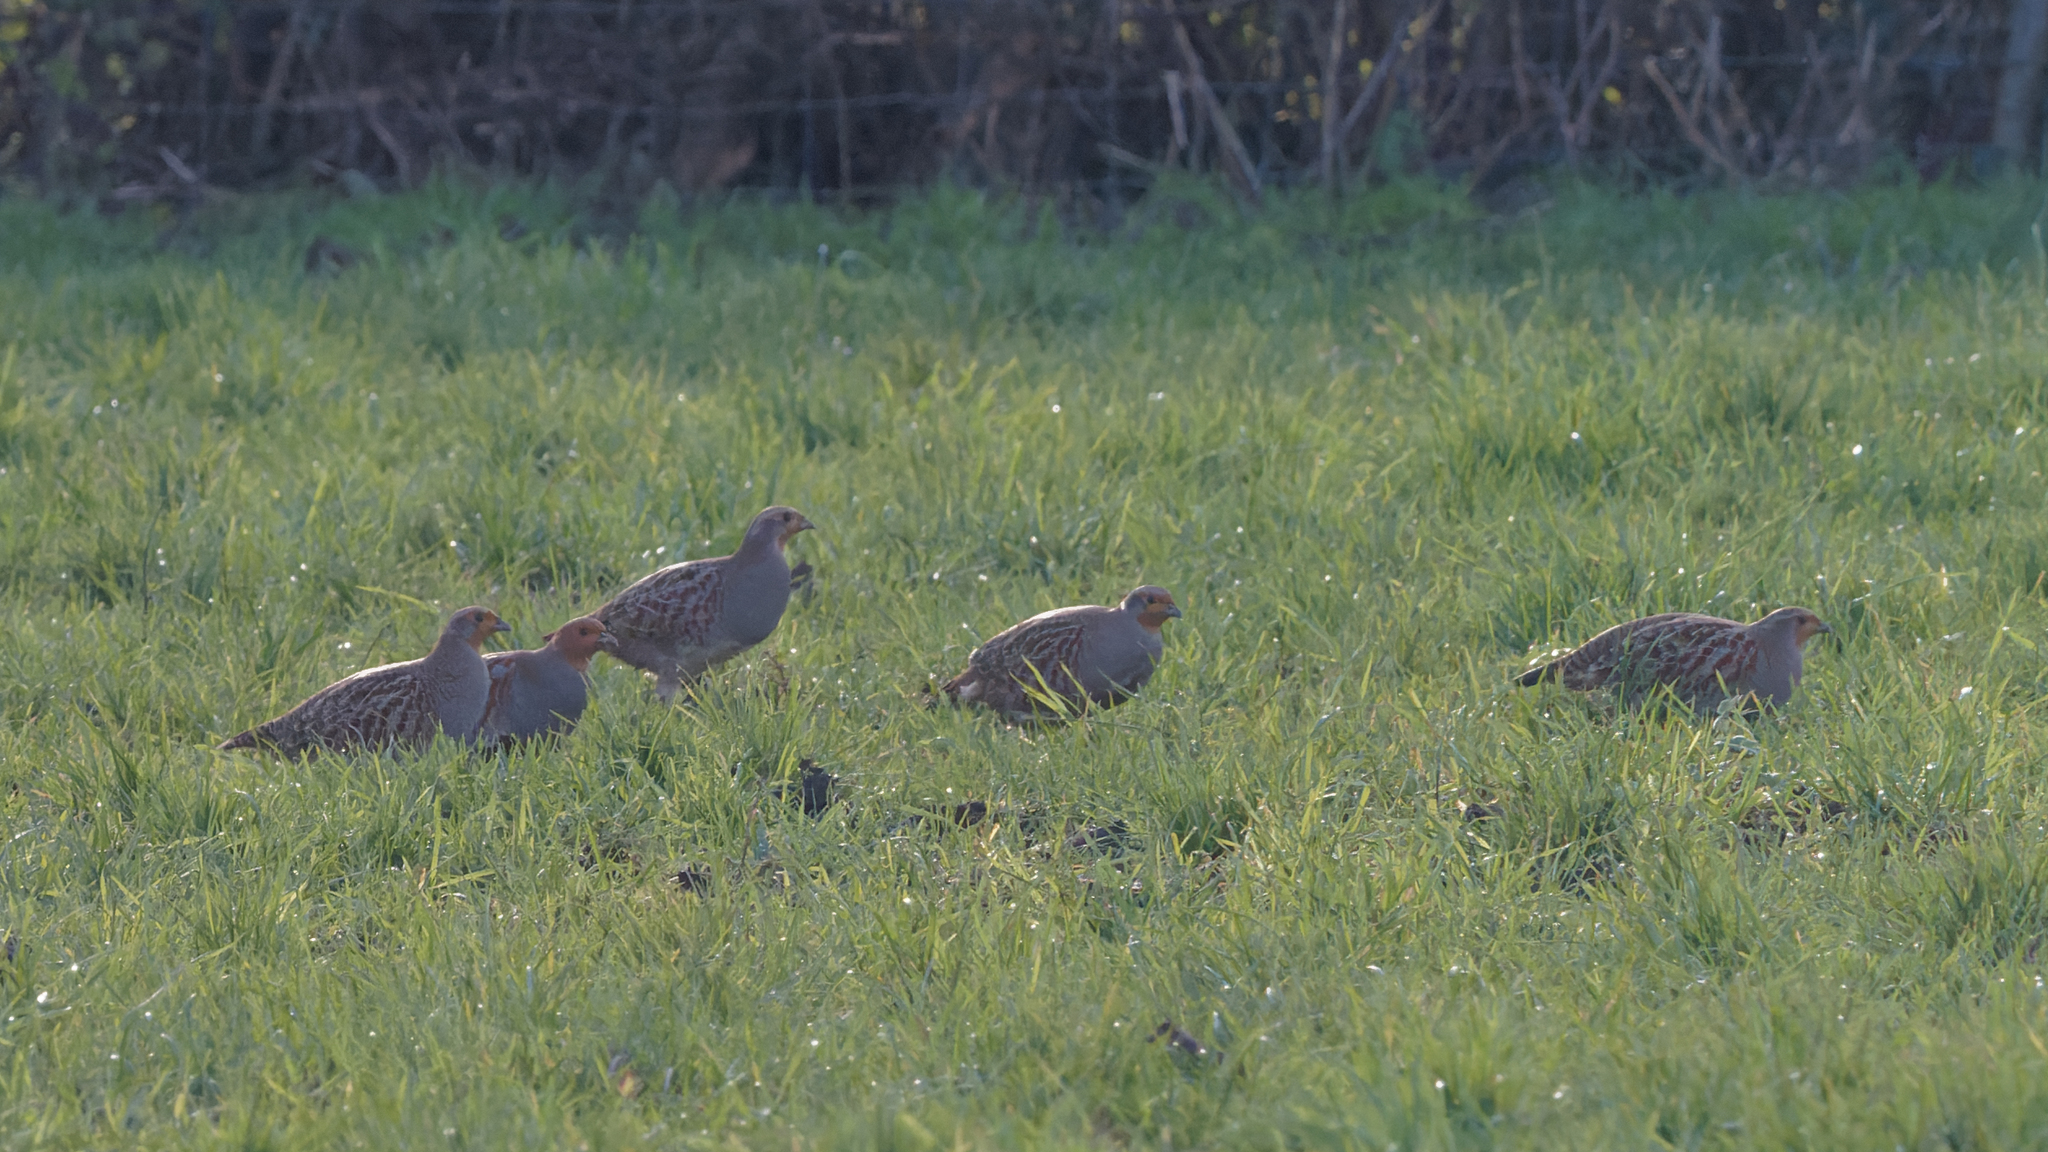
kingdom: Animalia
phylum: Chordata
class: Aves
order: Galliformes
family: Phasianidae
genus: Perdix
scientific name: Perdix perdix
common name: Grey partridge
